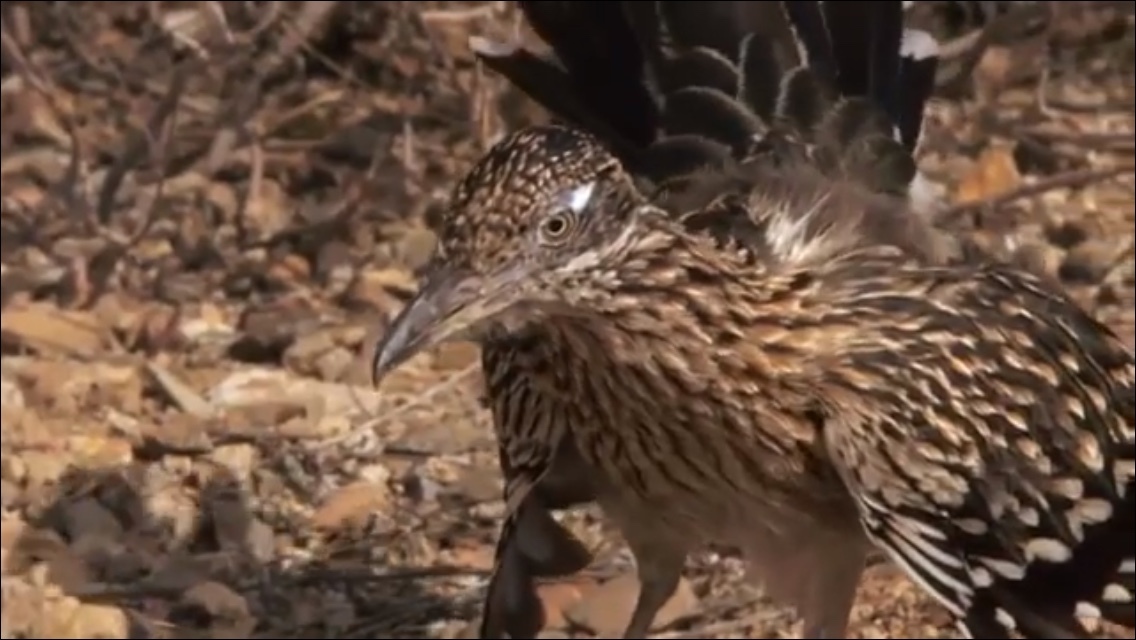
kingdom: Animalia
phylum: Chordata
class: Aves
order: Cuculiformes
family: Cuculidae
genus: Geococcyx
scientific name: Geococcyx californianus
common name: Greater roadrunner
